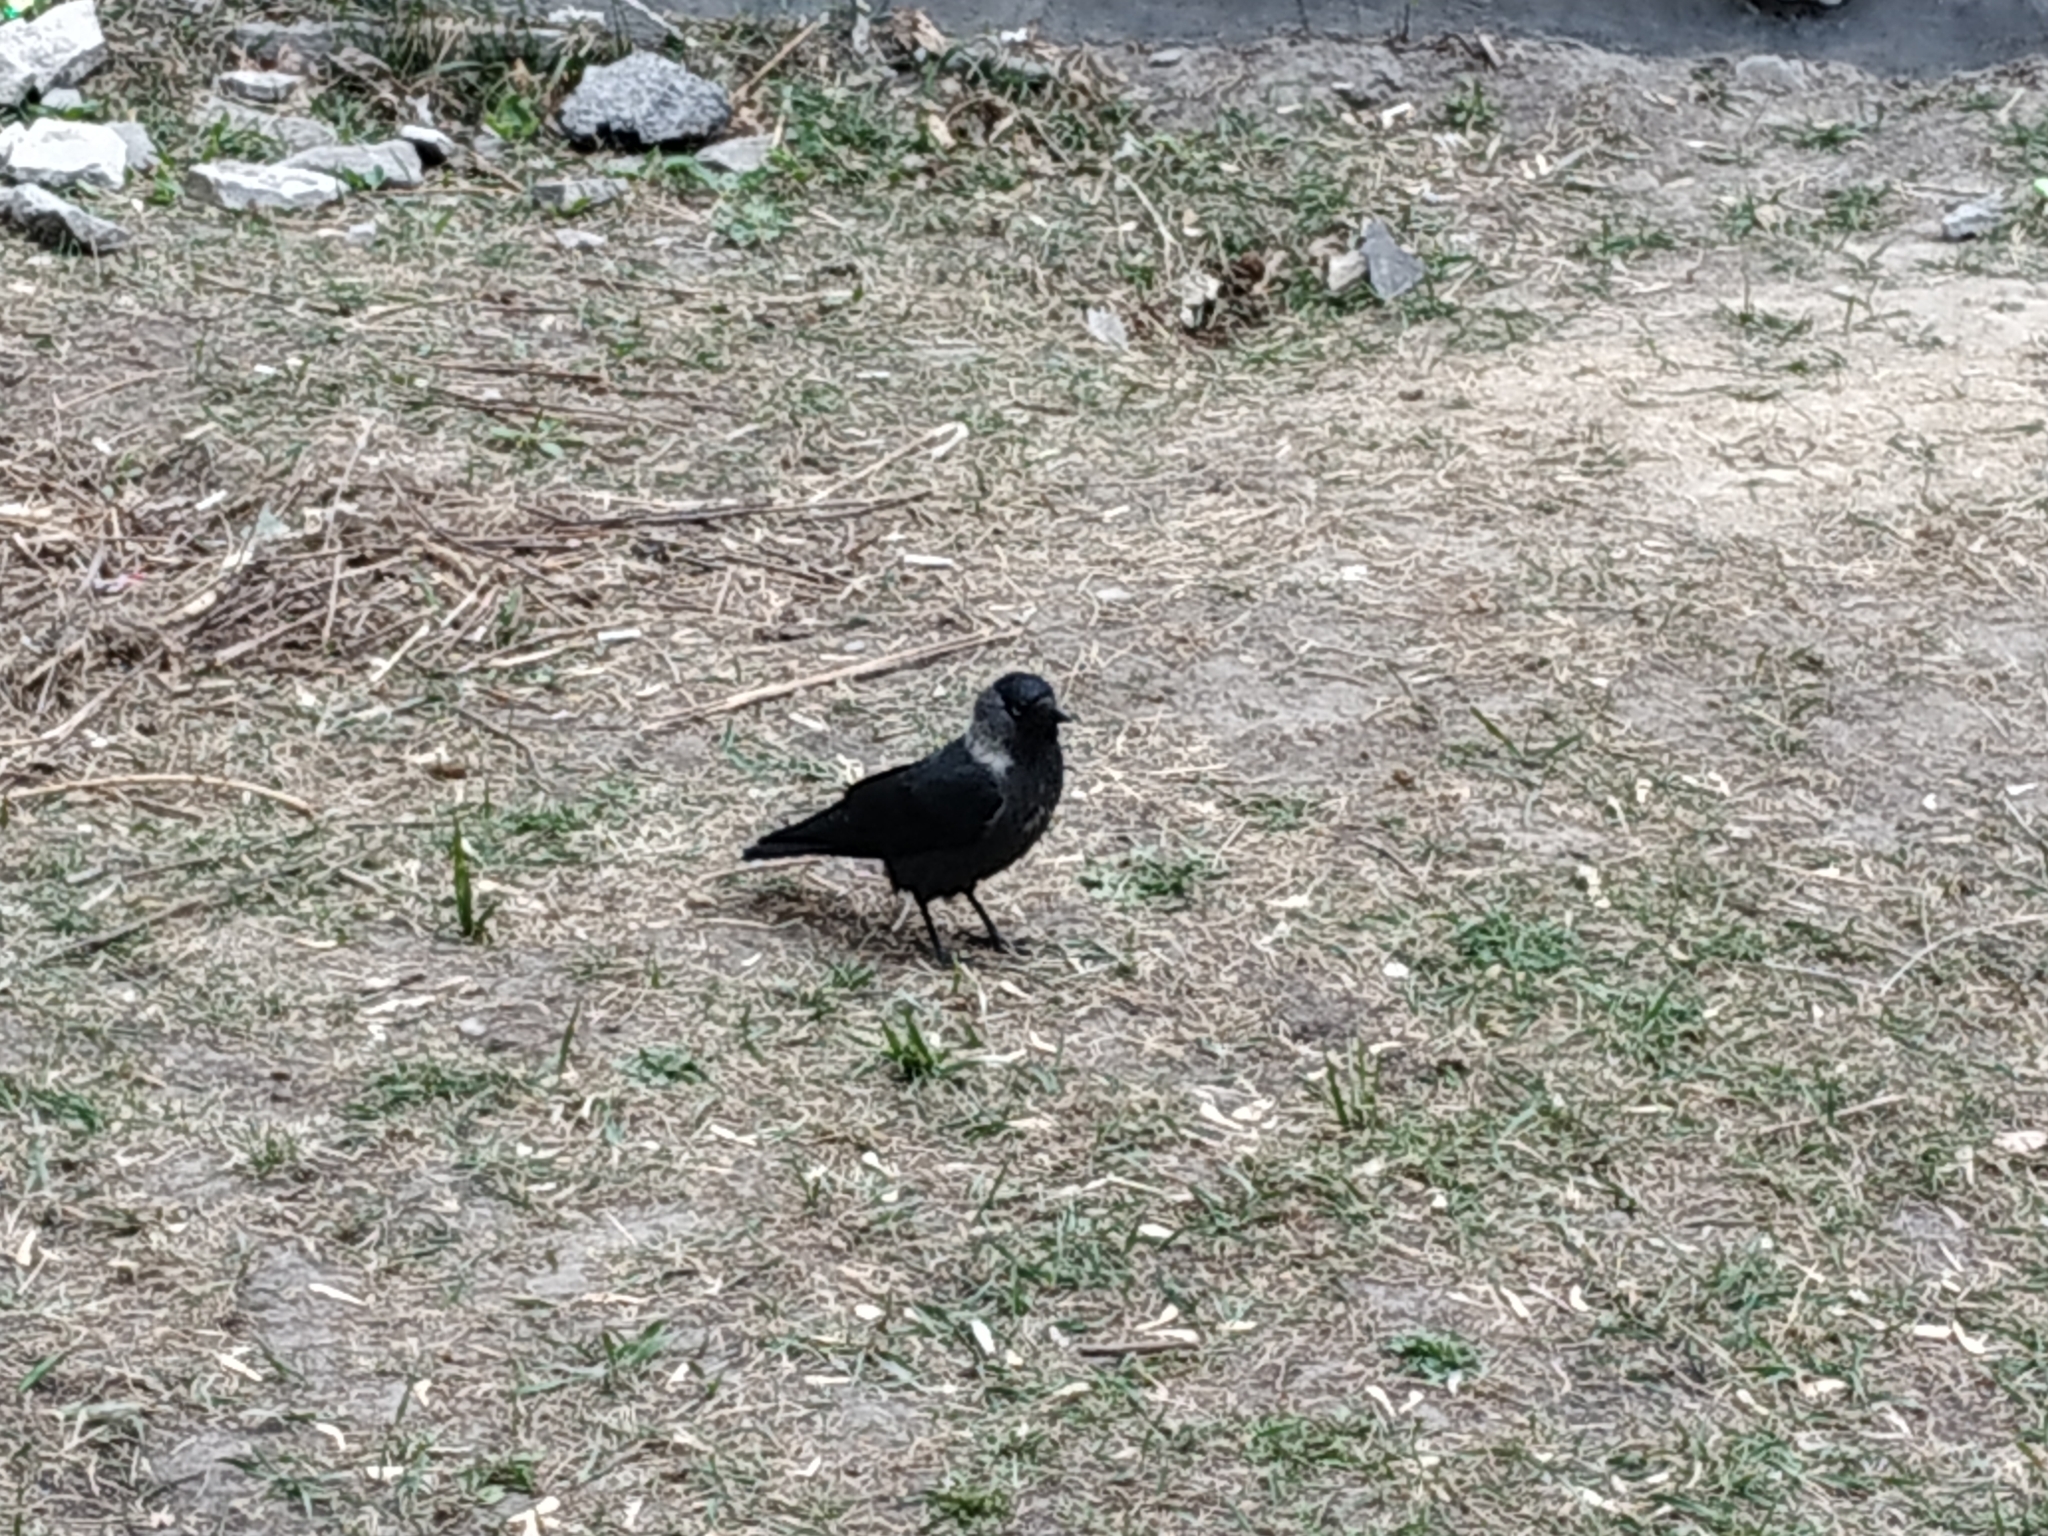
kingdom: Animalia
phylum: Chordata
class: Aves
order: Passeriformes
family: Corvidae
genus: Coloeus
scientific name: Coloeus monedula
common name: Western jackdaw
